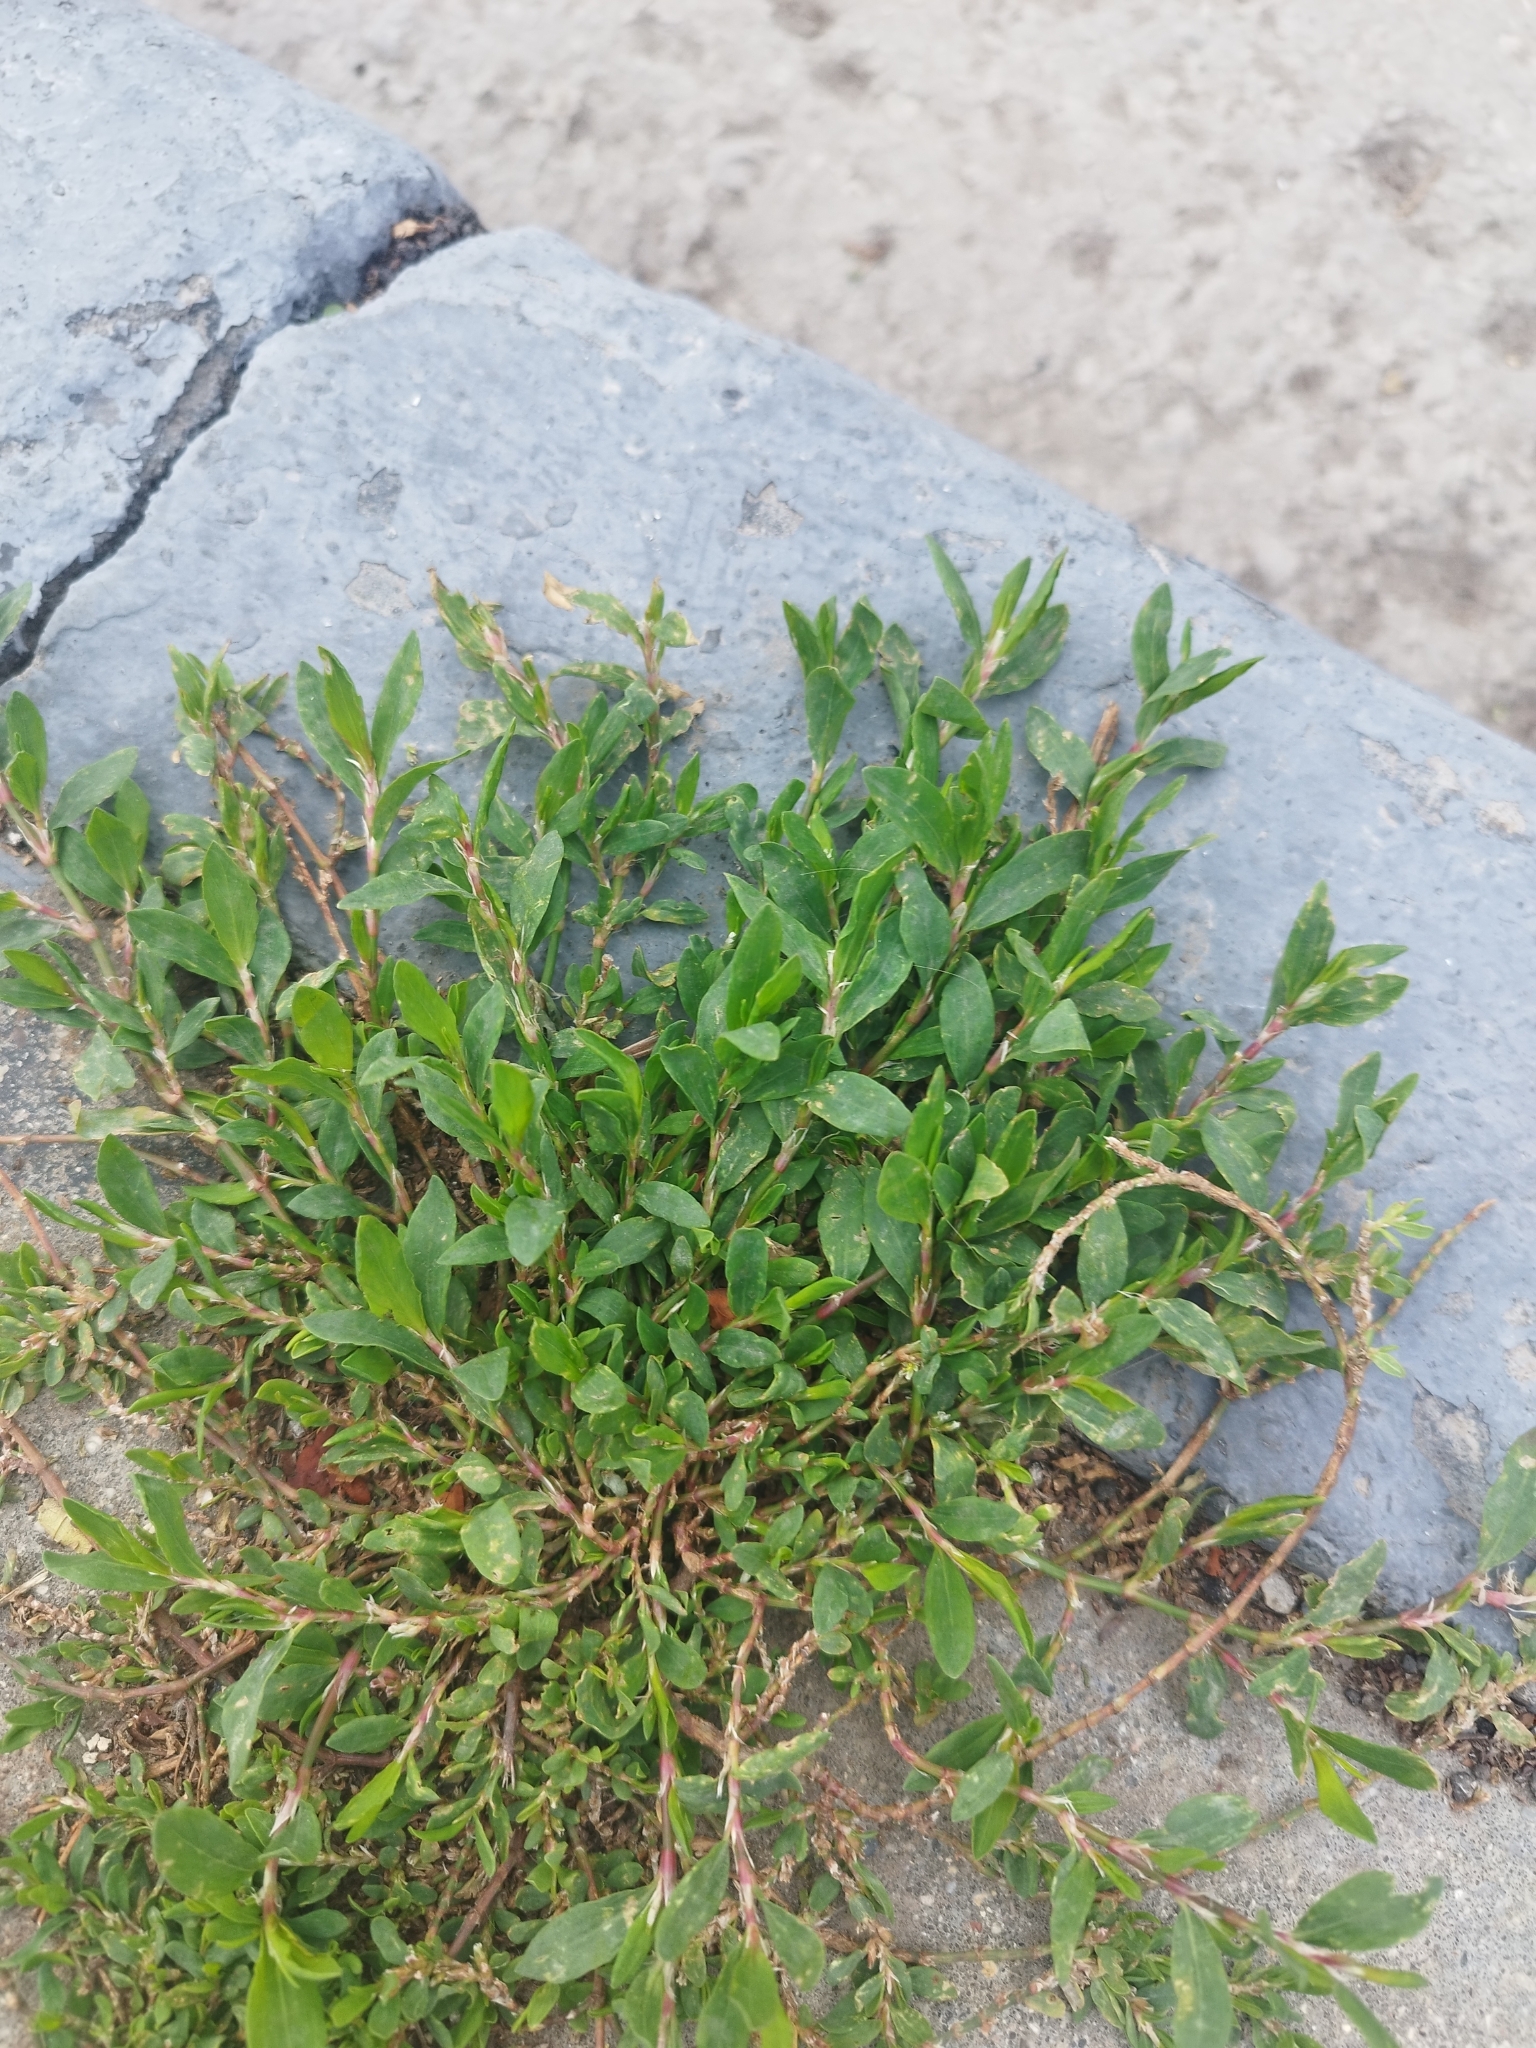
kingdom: Plantae
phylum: Tracheophyta
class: Magnoliopsida
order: Caryophyllales
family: Polygonaceae
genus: Polygonum
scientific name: Polygonum
